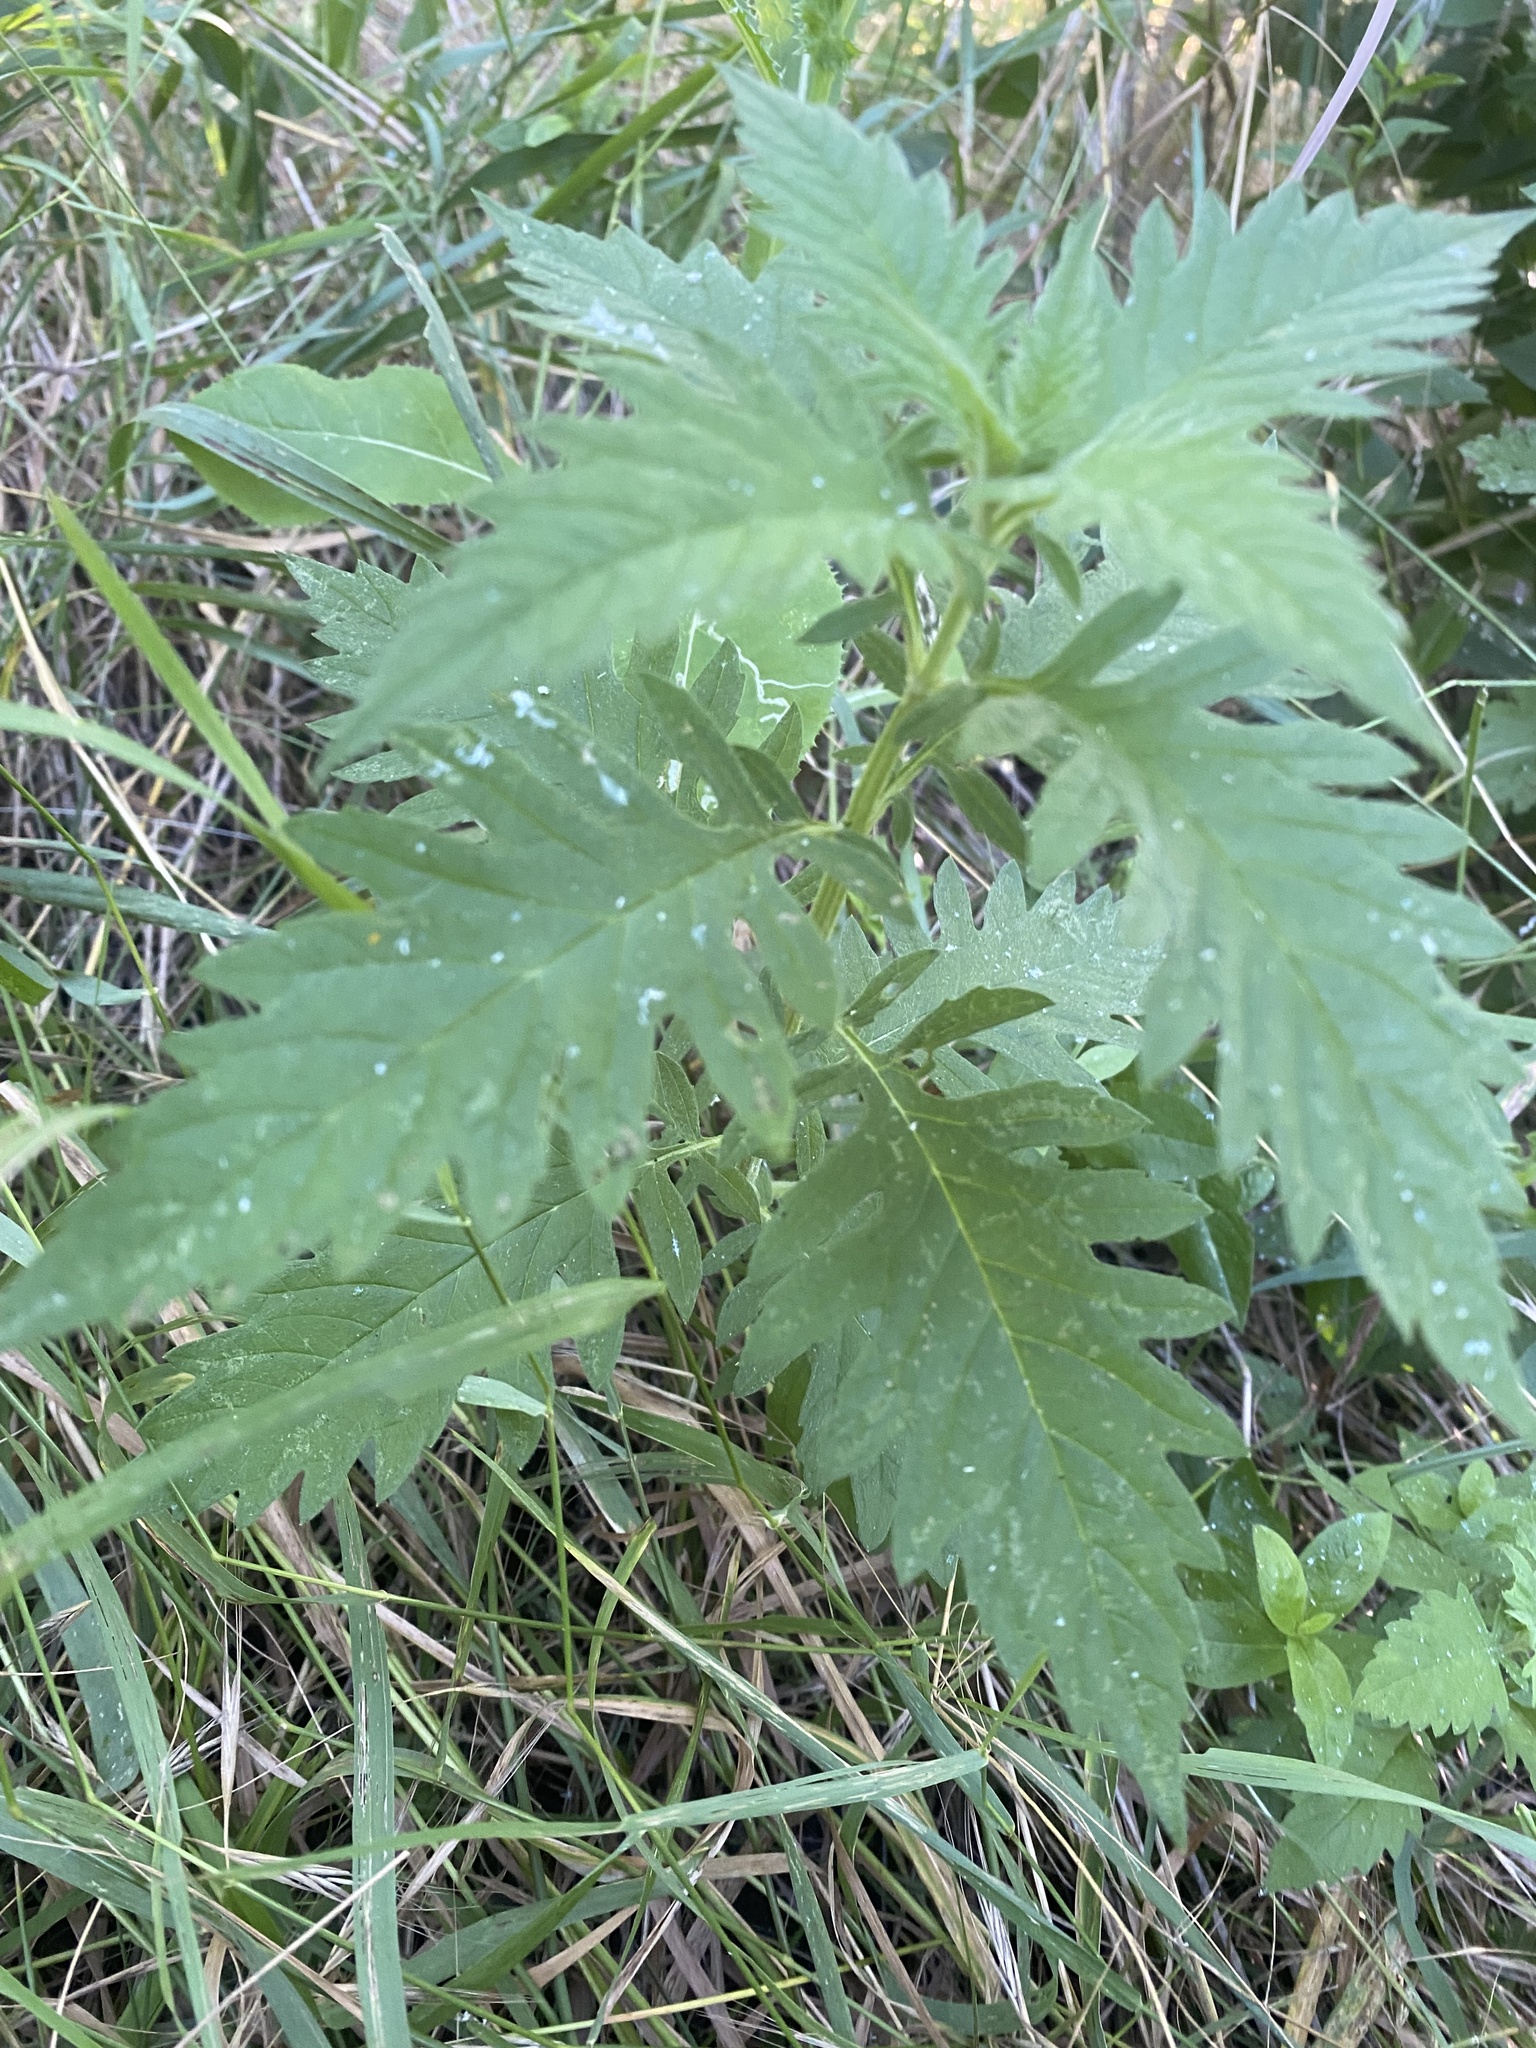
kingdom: Plantae
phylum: Tracheophyta
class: Magnoliopsida
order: Lamiales
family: Lamiaceae
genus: Lycopus
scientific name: Lycopus europaeus
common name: European bugleweed
